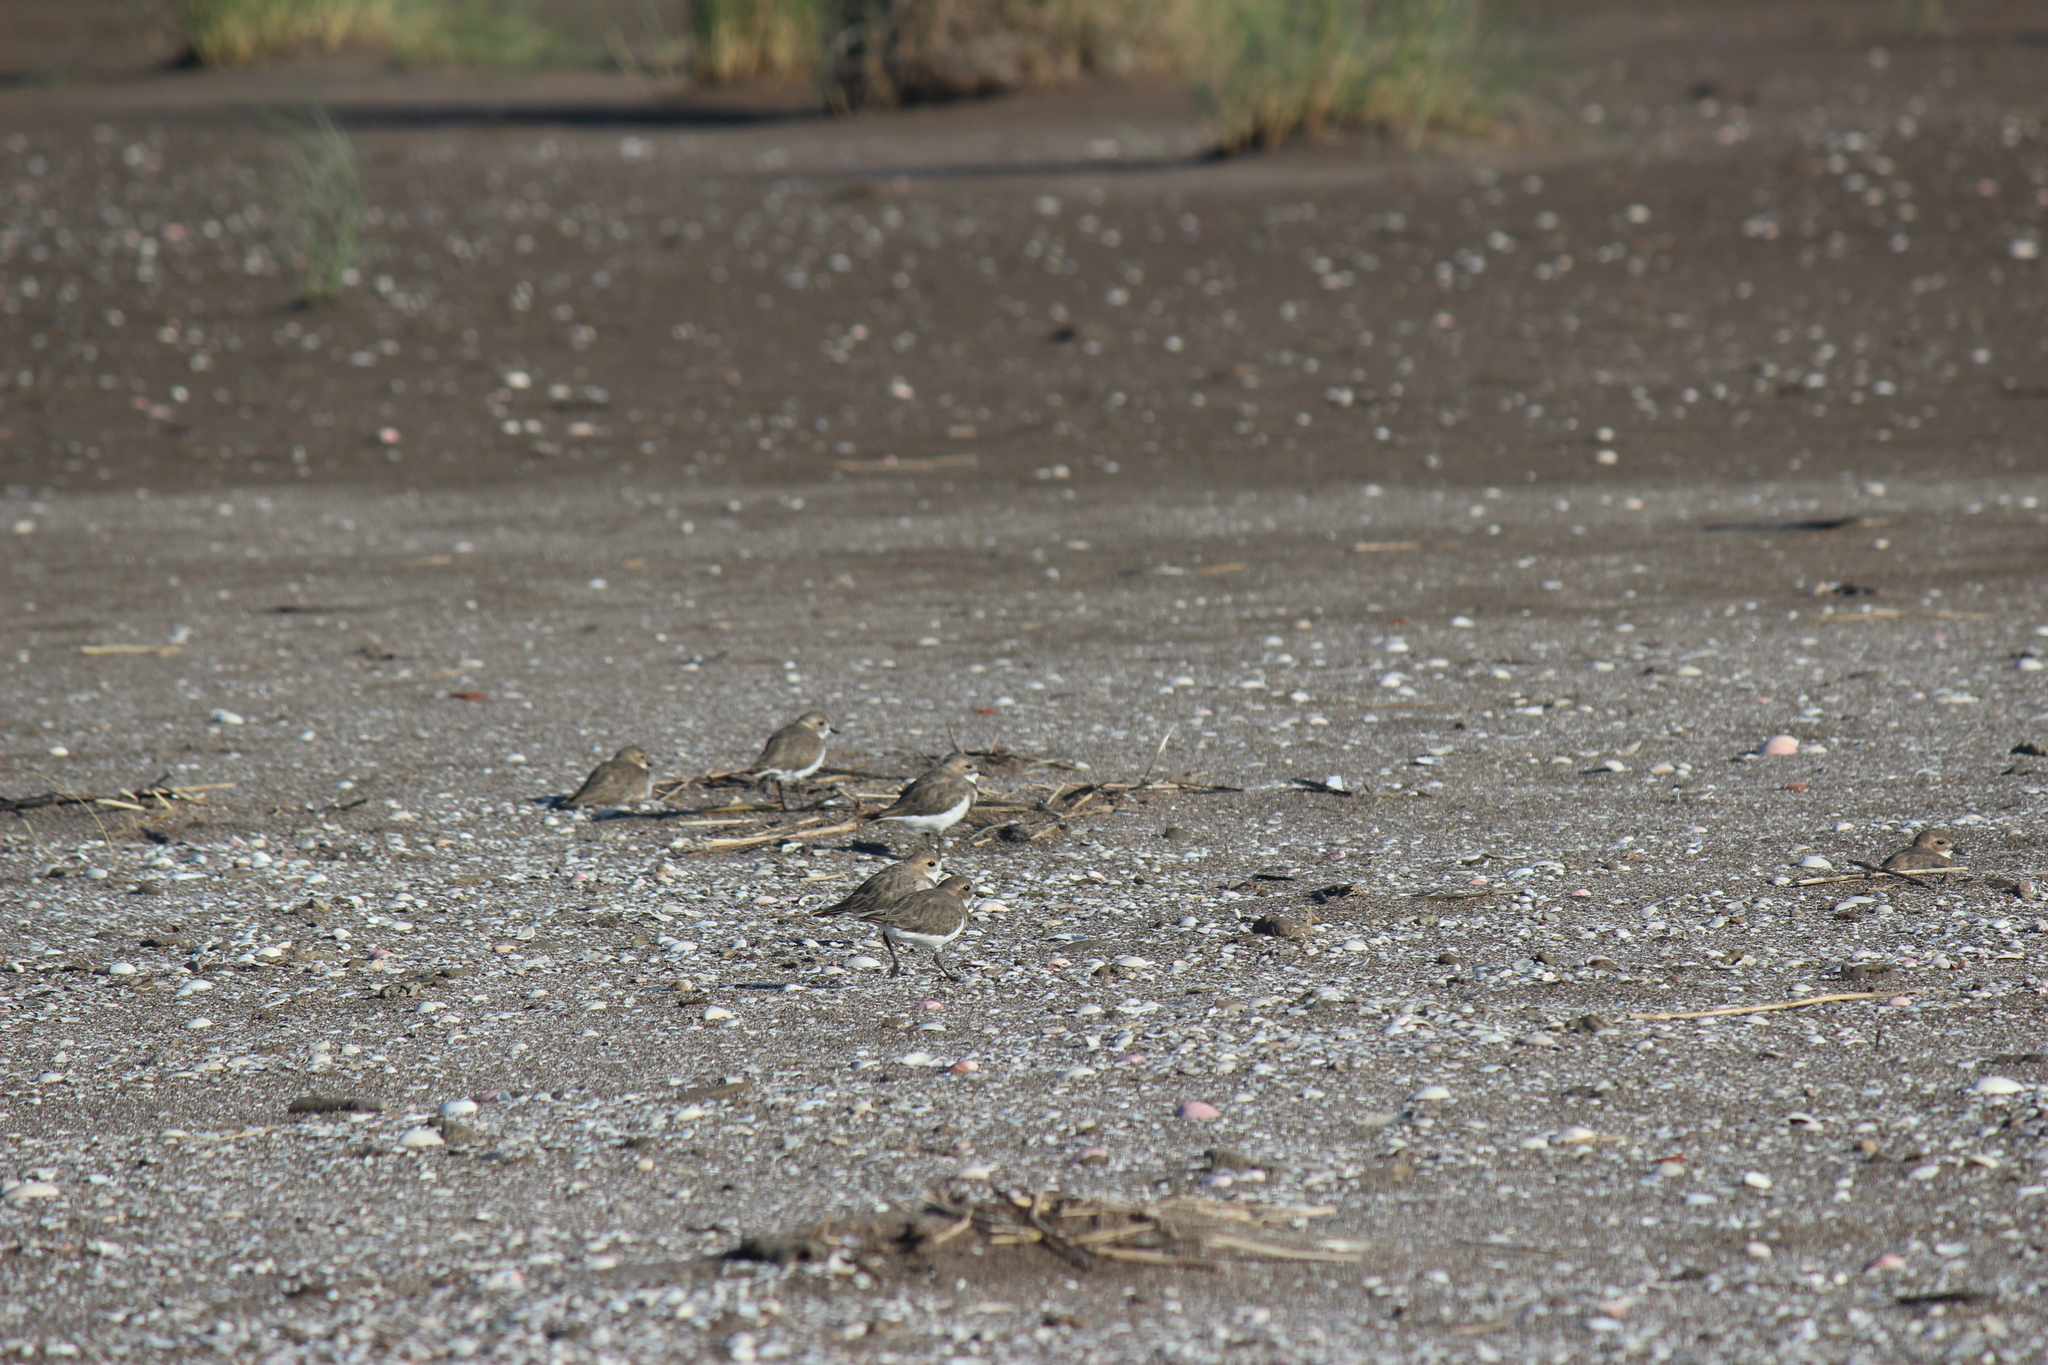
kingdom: Animalia
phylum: Chordata
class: Aves
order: Charadriiformes
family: Charadriidae
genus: Anarhynchus
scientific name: Anarhynchus
